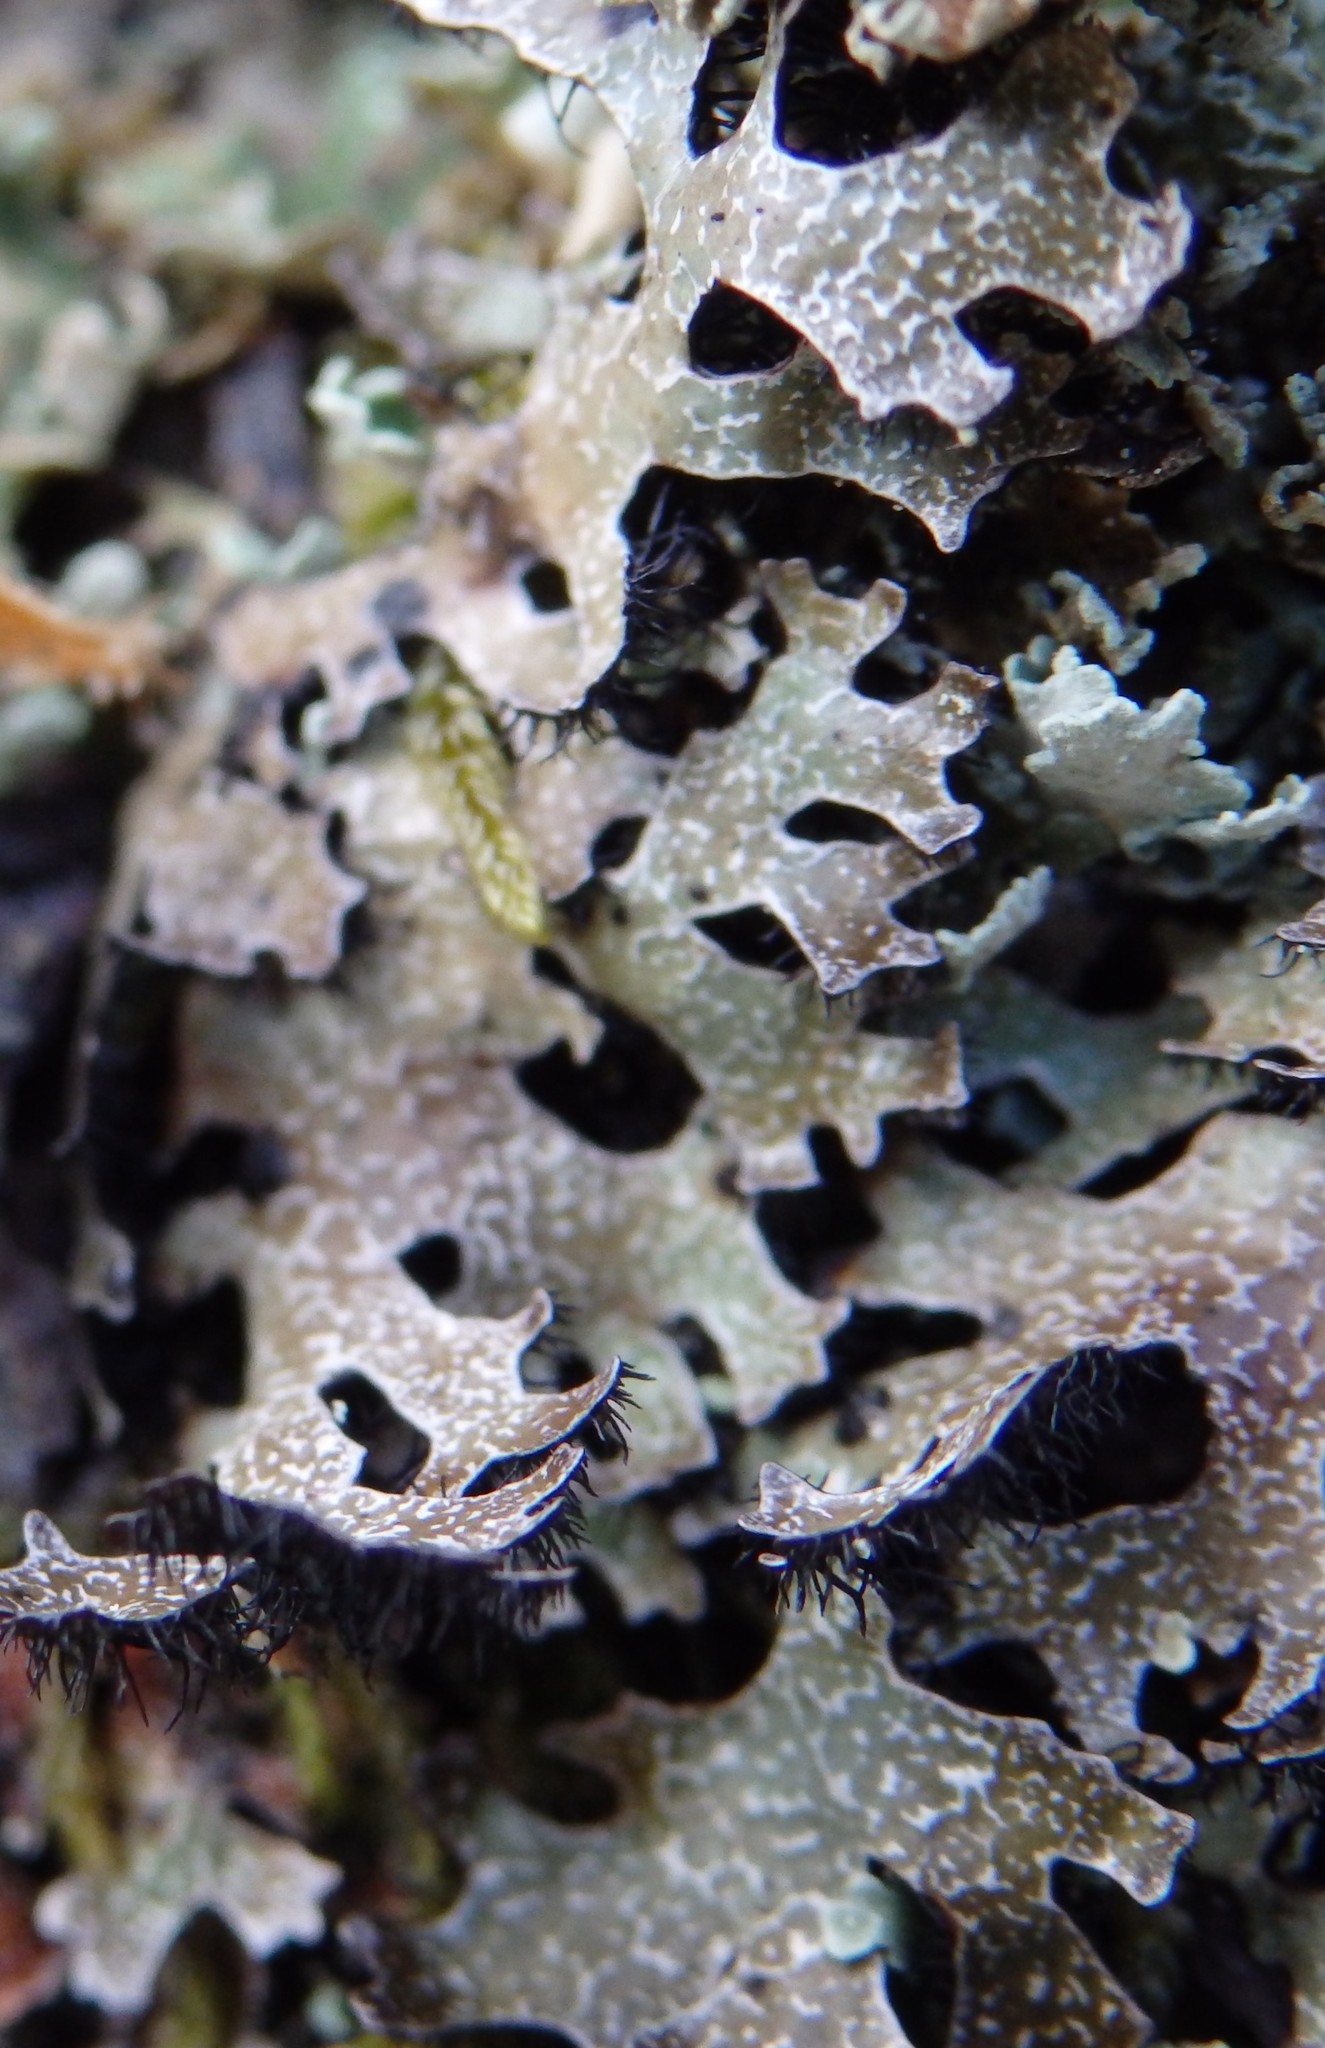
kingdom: Fungi
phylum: Ascomycota
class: Lecanoromycetes
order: Lecanorales
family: Parmeliaceae
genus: Parmelia
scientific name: Parmelia omphalodes
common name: Smoky crottle
